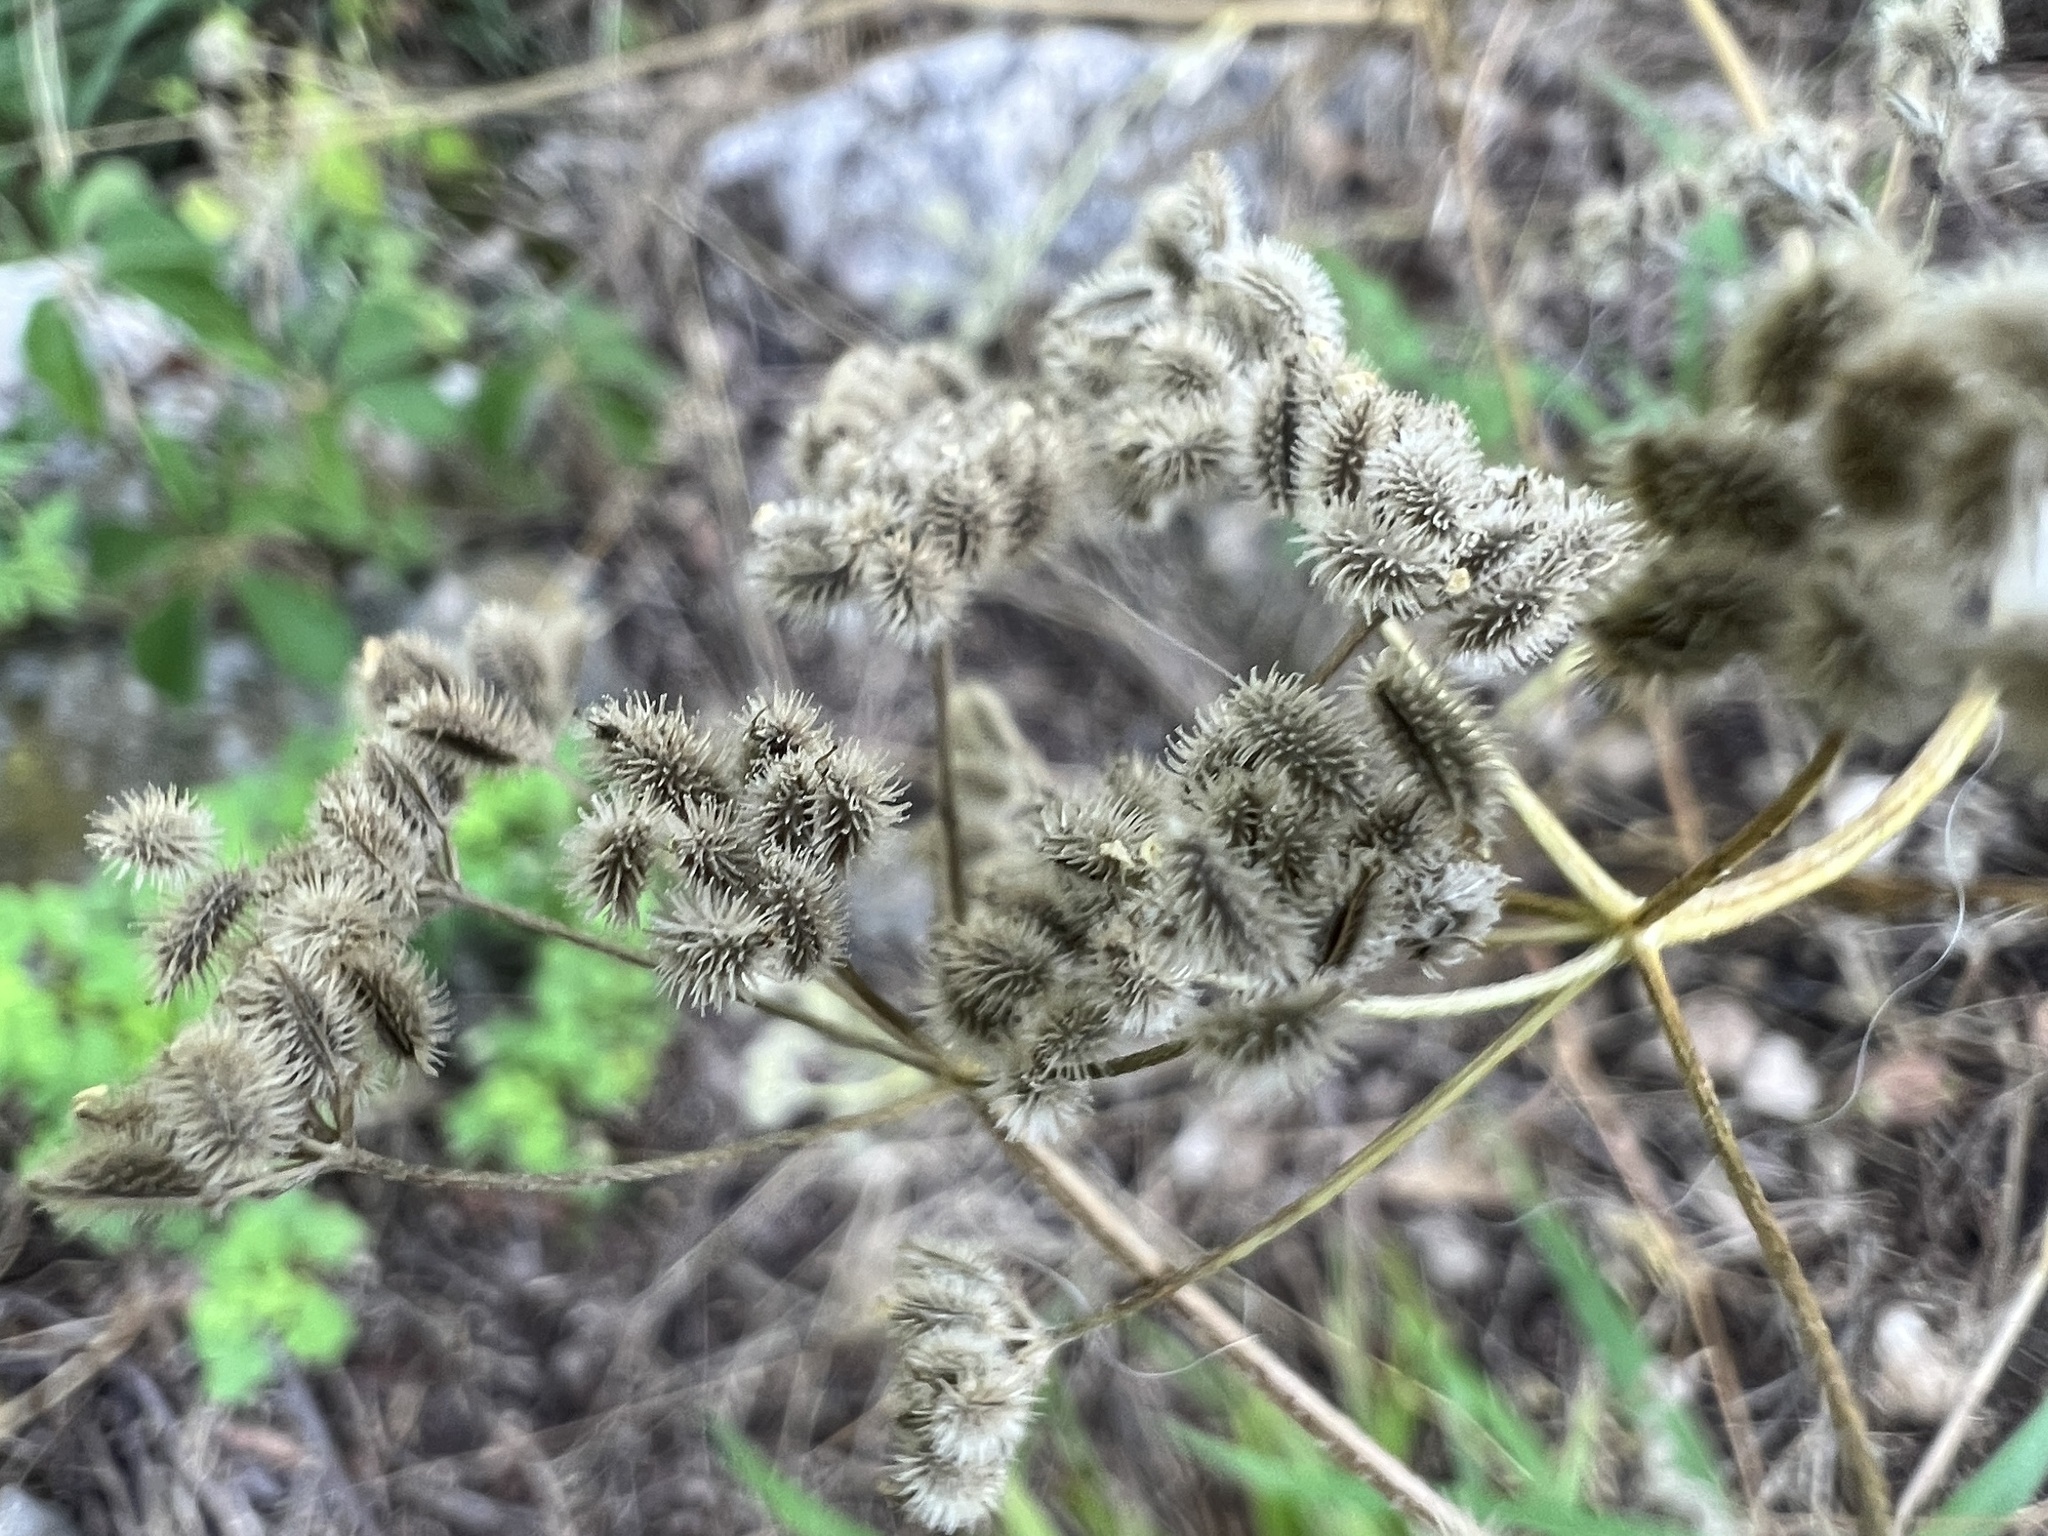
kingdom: Plantae
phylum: Tracheophyta
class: Magnoliopsida
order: Apiales
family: Apiaceae
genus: Torilis
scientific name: Torilis arvensis
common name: Spreading hedge-parsley
